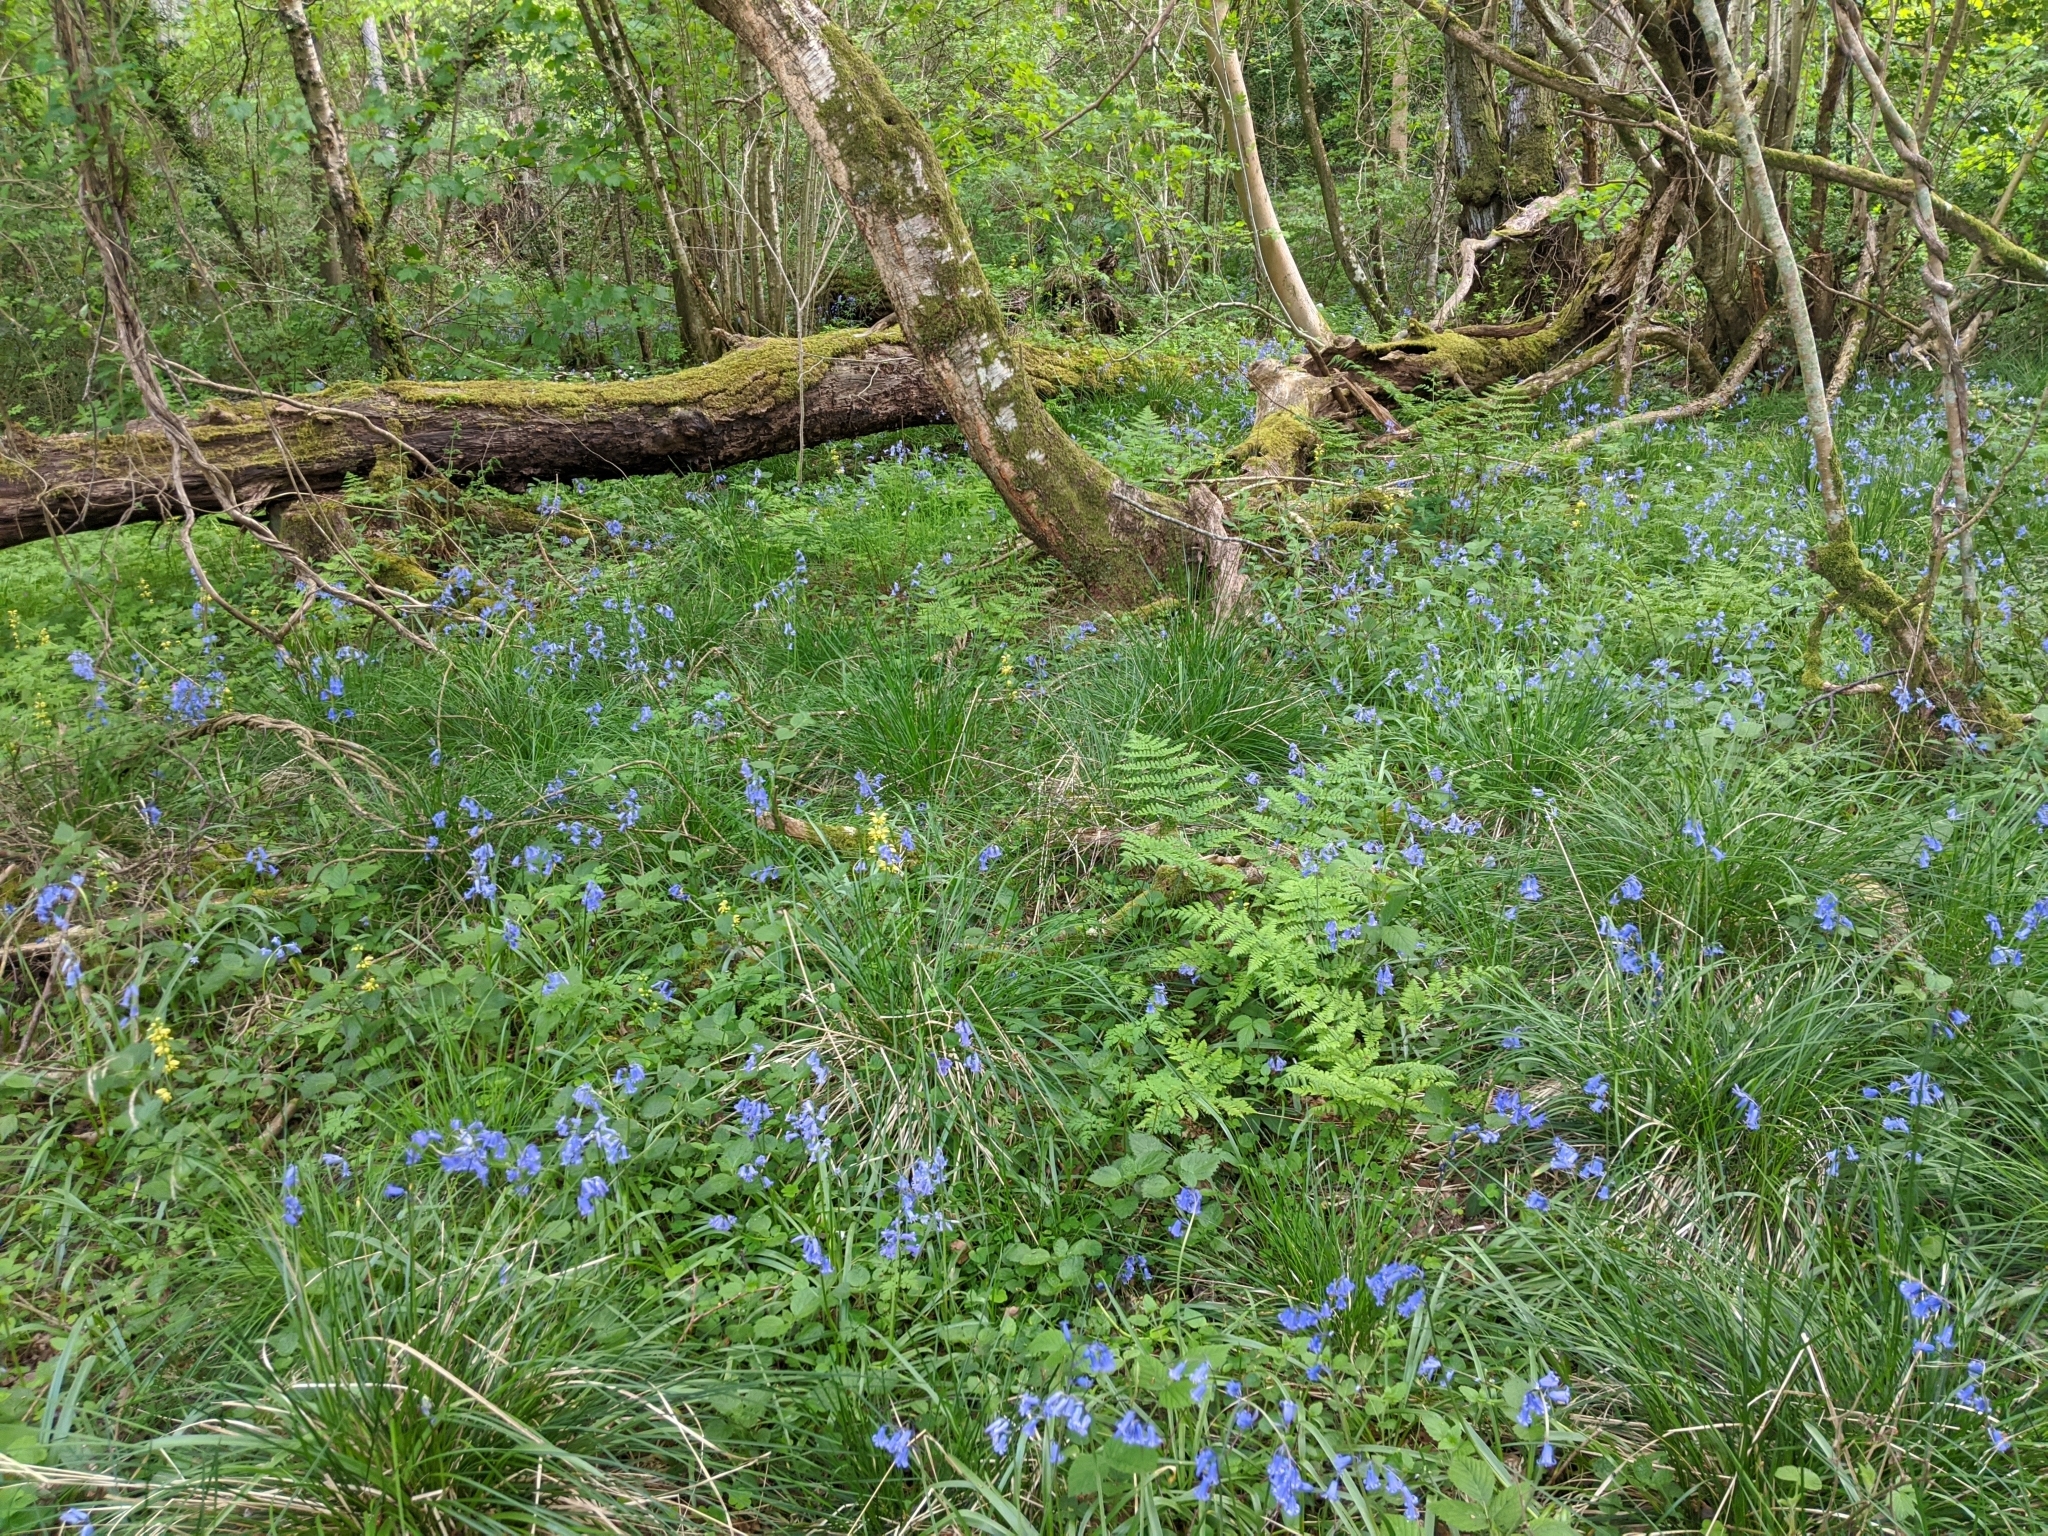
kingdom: Plantae
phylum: Tracheophyta
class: Liliopsida
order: Asparagales
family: Asparagaceae
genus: Hyacinthoides
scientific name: Hyacinthoides non-scripta
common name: Bluebell
